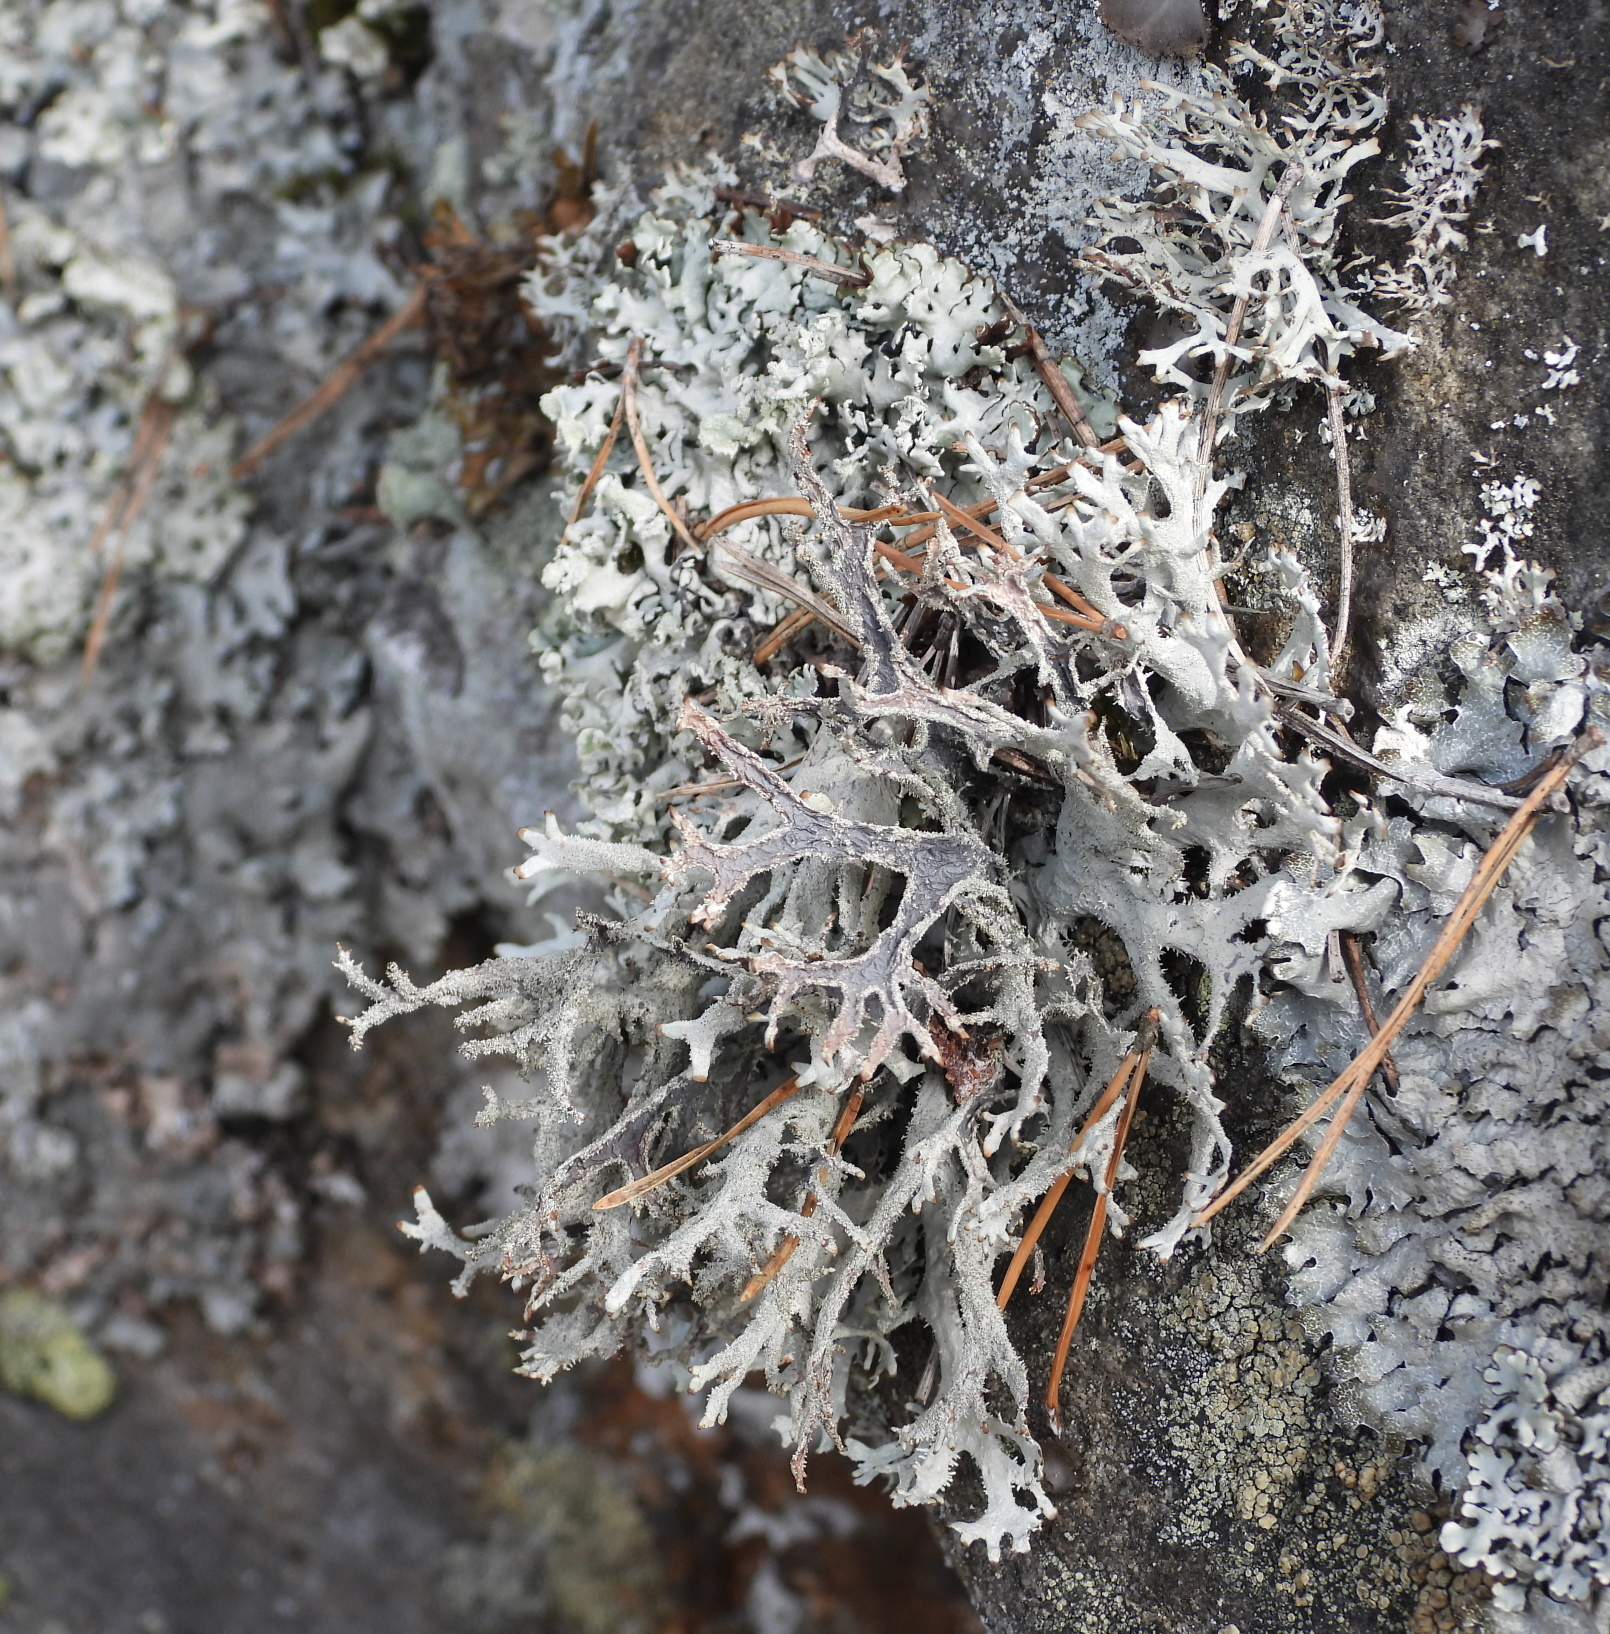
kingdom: Fungi
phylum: Ascomycota
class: Lecanoromycetes
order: Lecanorales
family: Parmeliaceae
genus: Pseudevernia
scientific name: Pseudevernia furfuracea
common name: Tree moss
